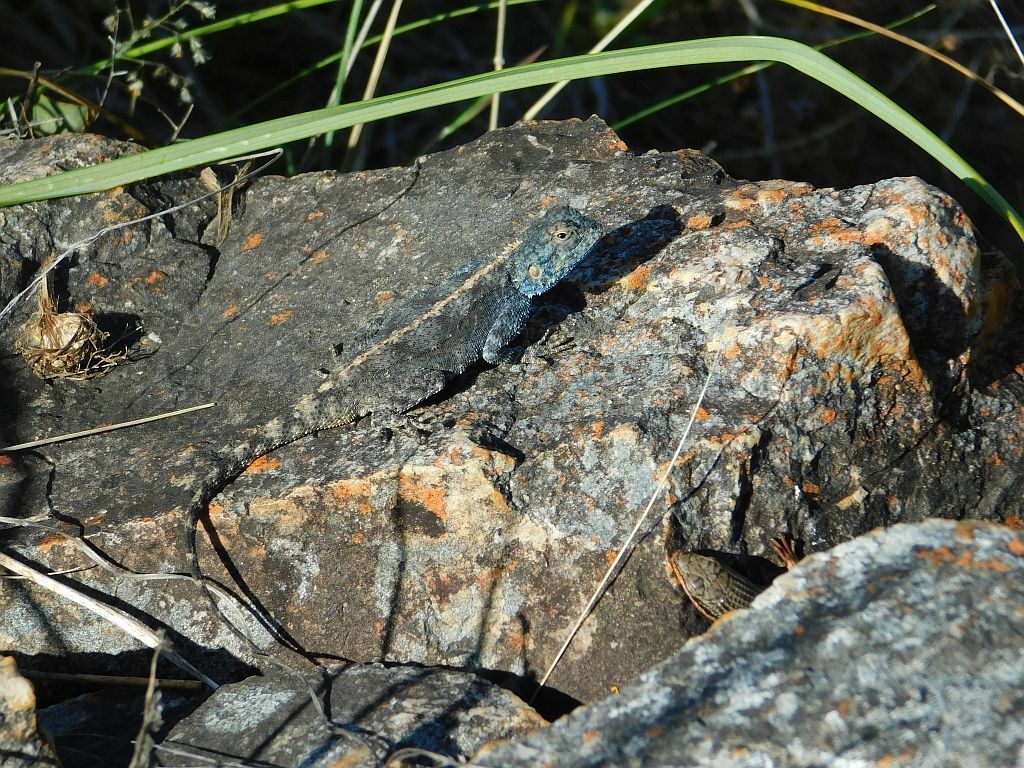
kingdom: Animalia
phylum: Chordata
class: Squamata
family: Agamidae
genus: Agama
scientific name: Agama atra
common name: Southern african rock agama
